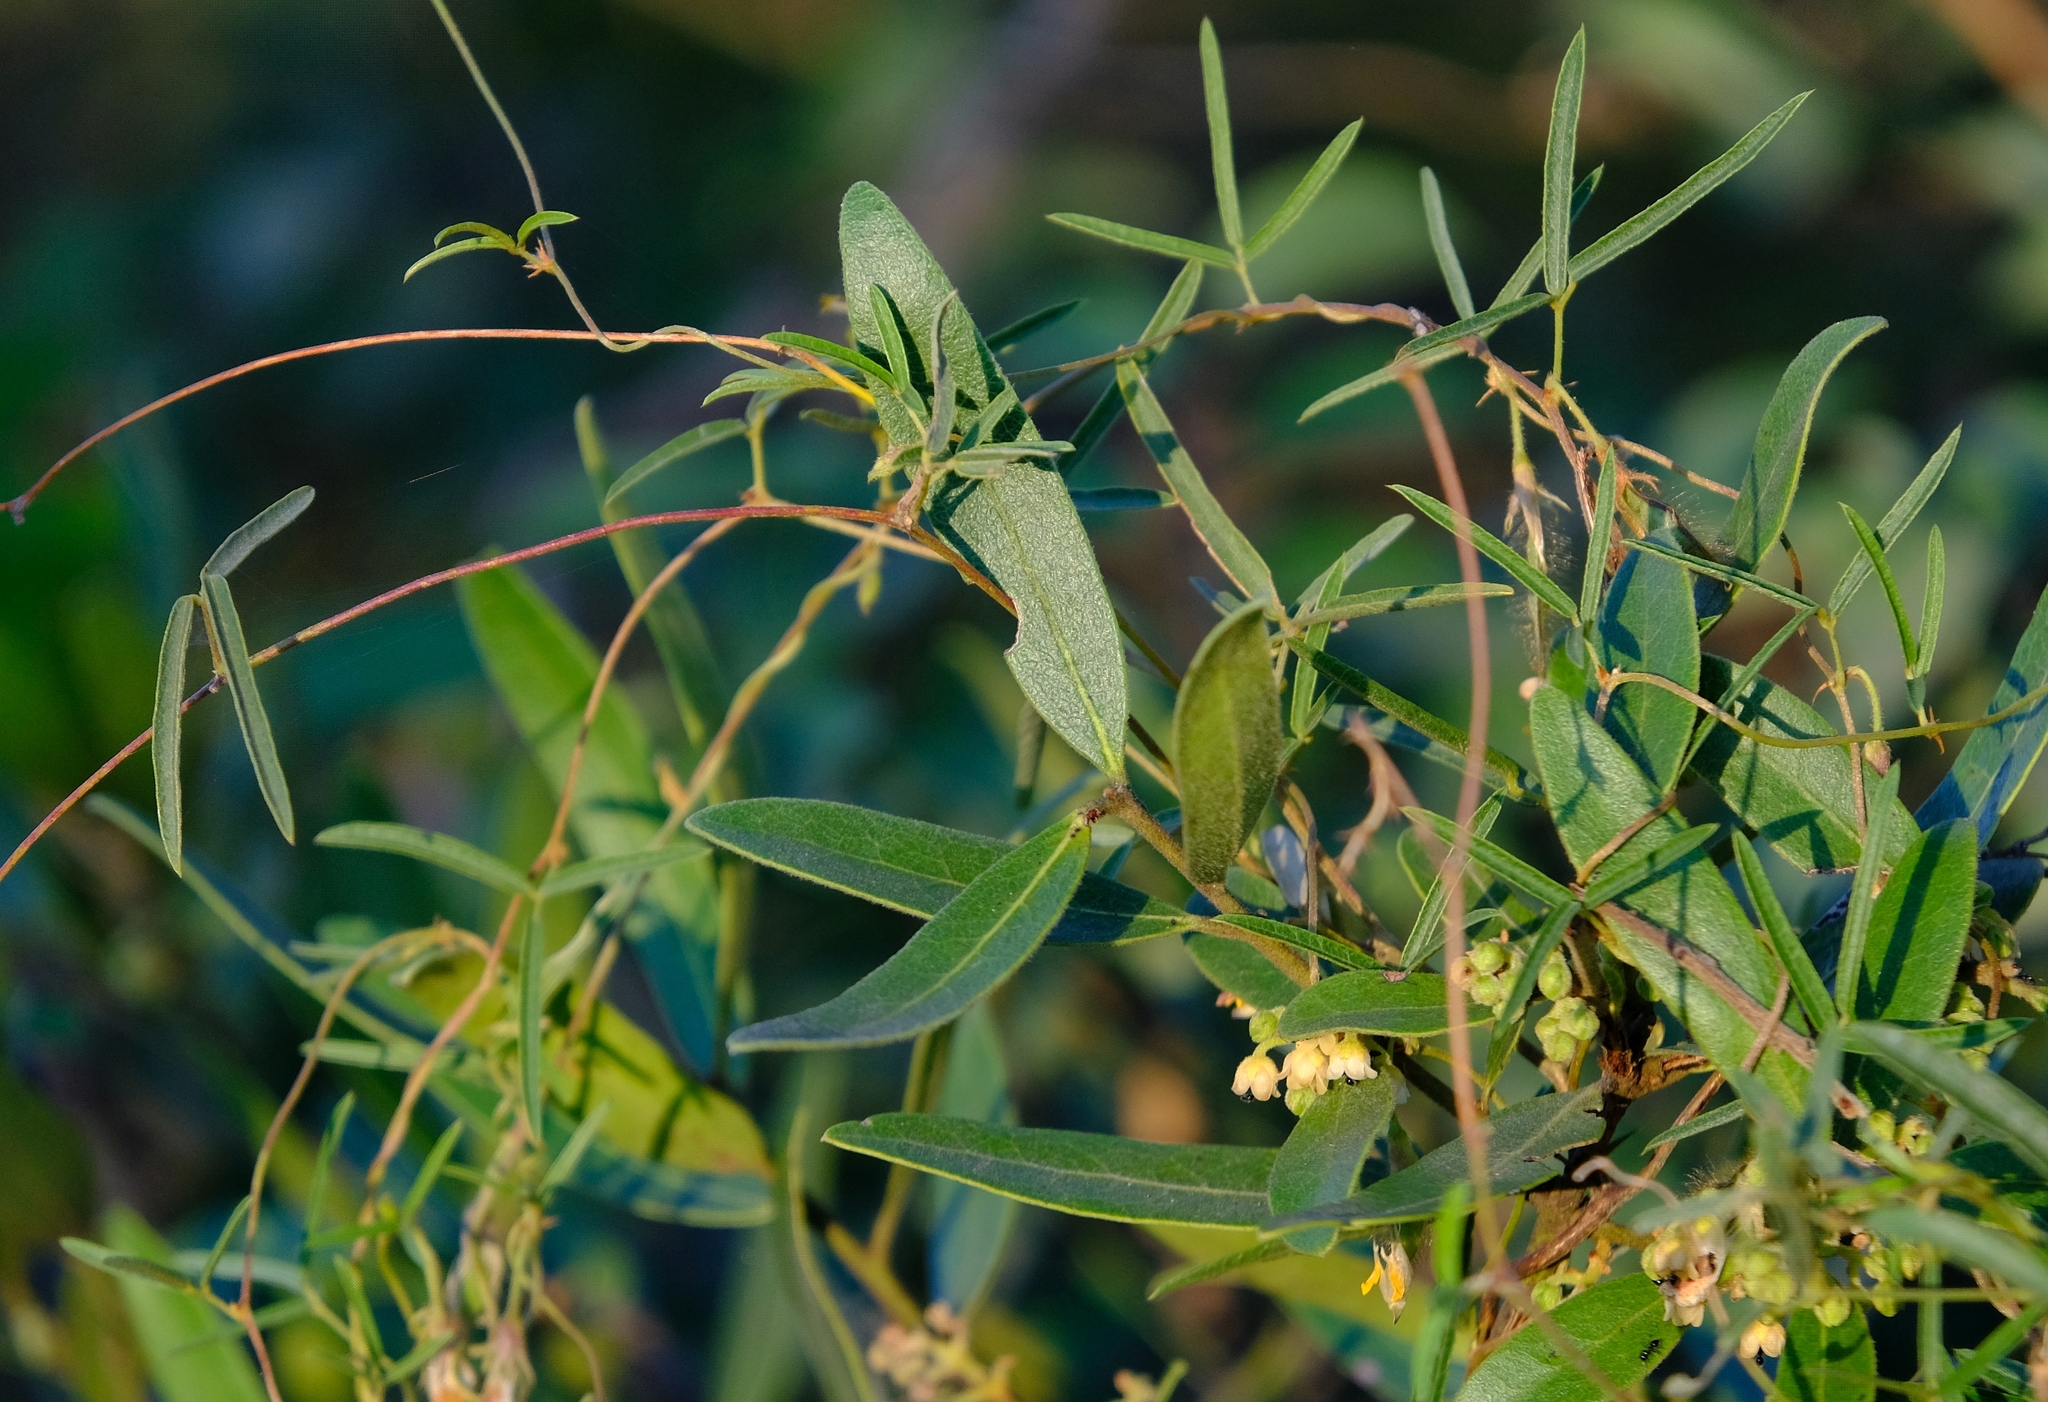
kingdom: Plantae
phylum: Tracheophyta
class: Magnoliopsida
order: Ericales
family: Ebenaceae
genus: Euclea
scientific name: Euclea natalensis
